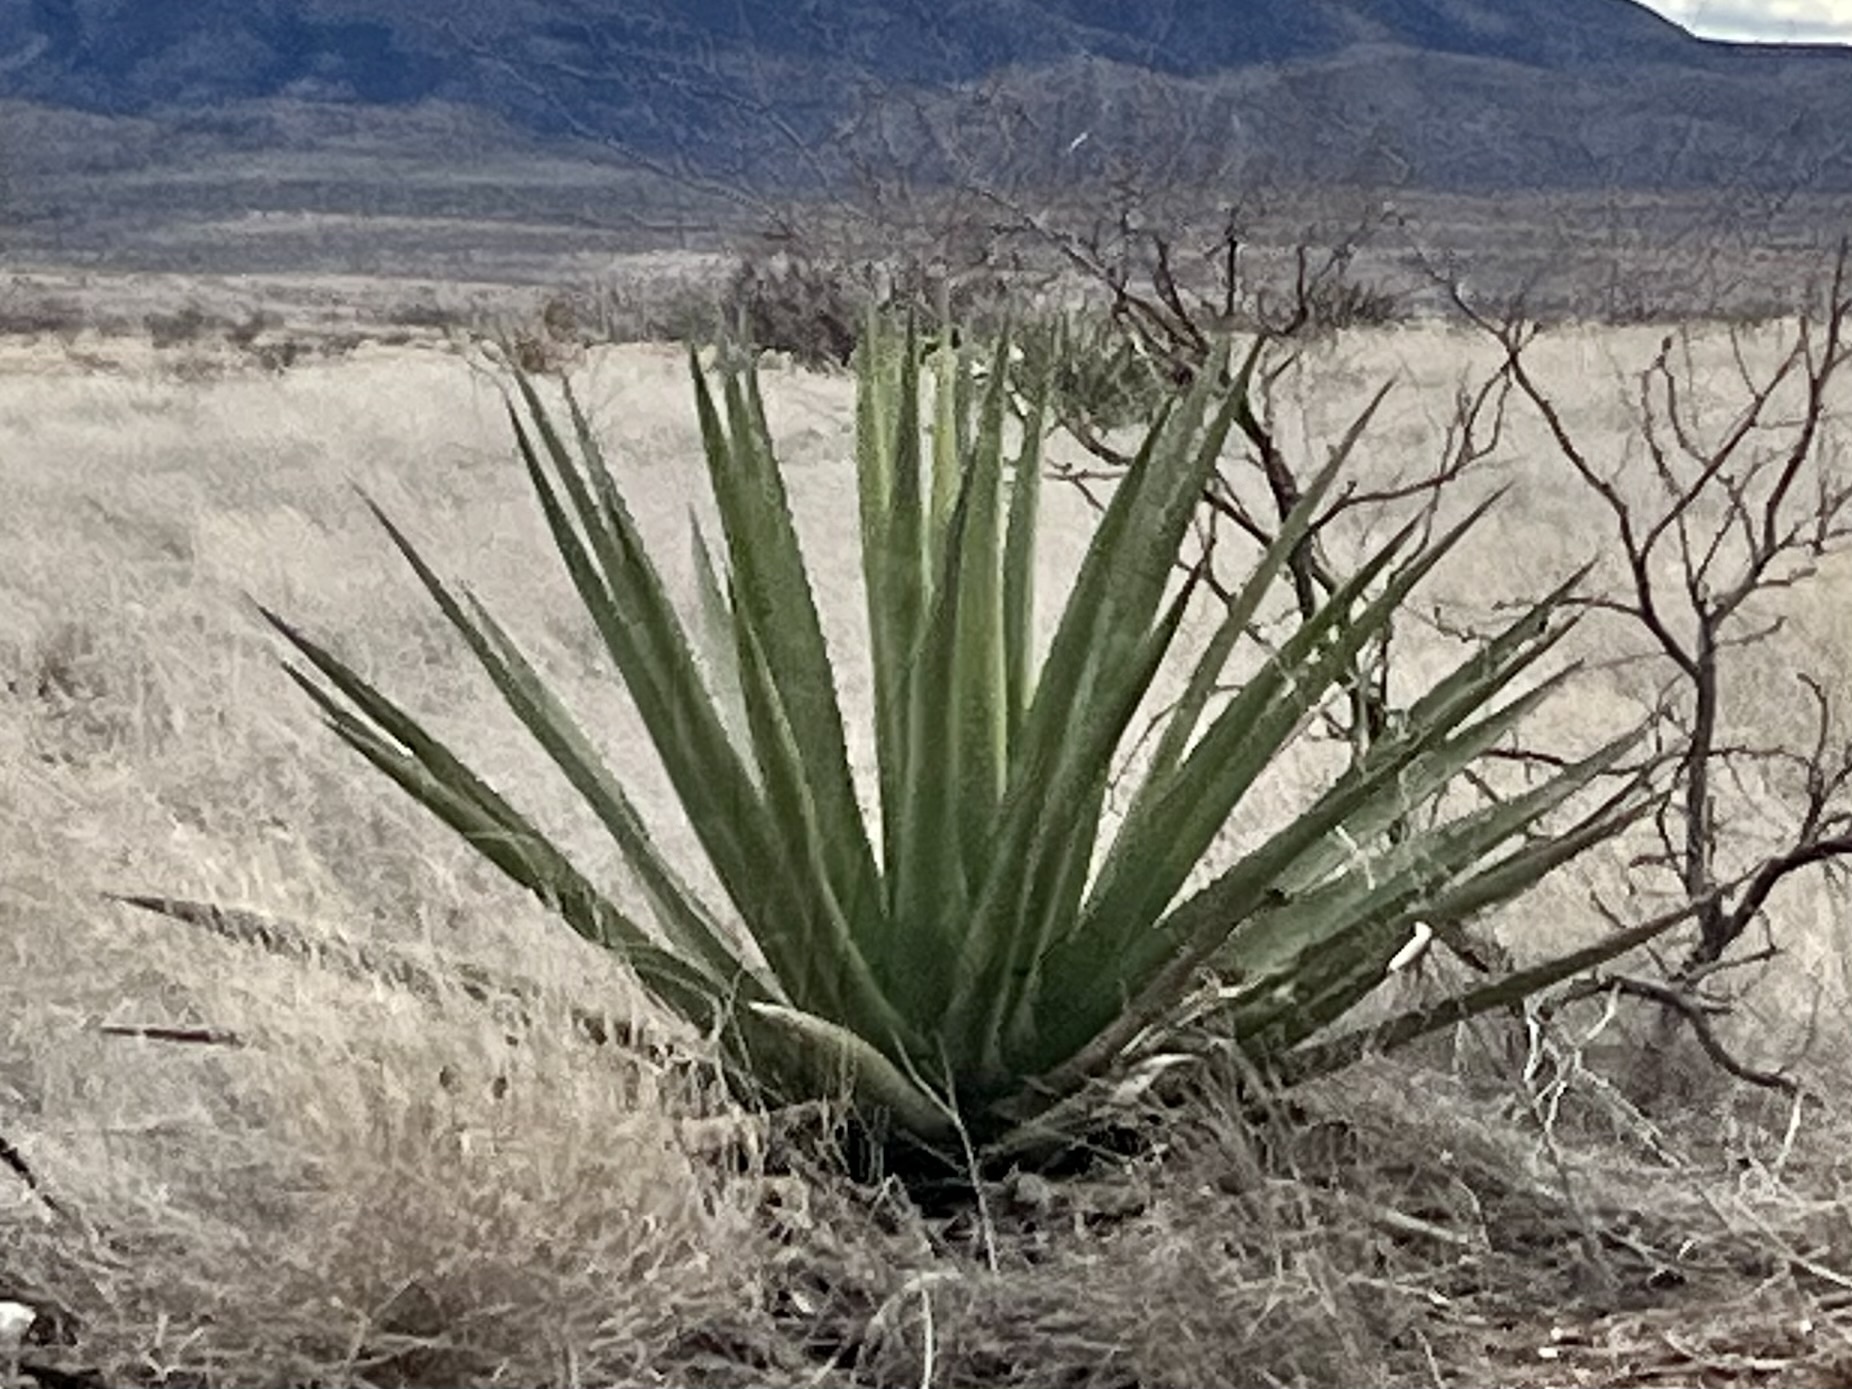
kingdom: Plantae
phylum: Tracheophyta
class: Liliopsida
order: Asparagales
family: Asparagaceae
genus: Agave
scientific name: Agave palmeri
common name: Palmer agave
